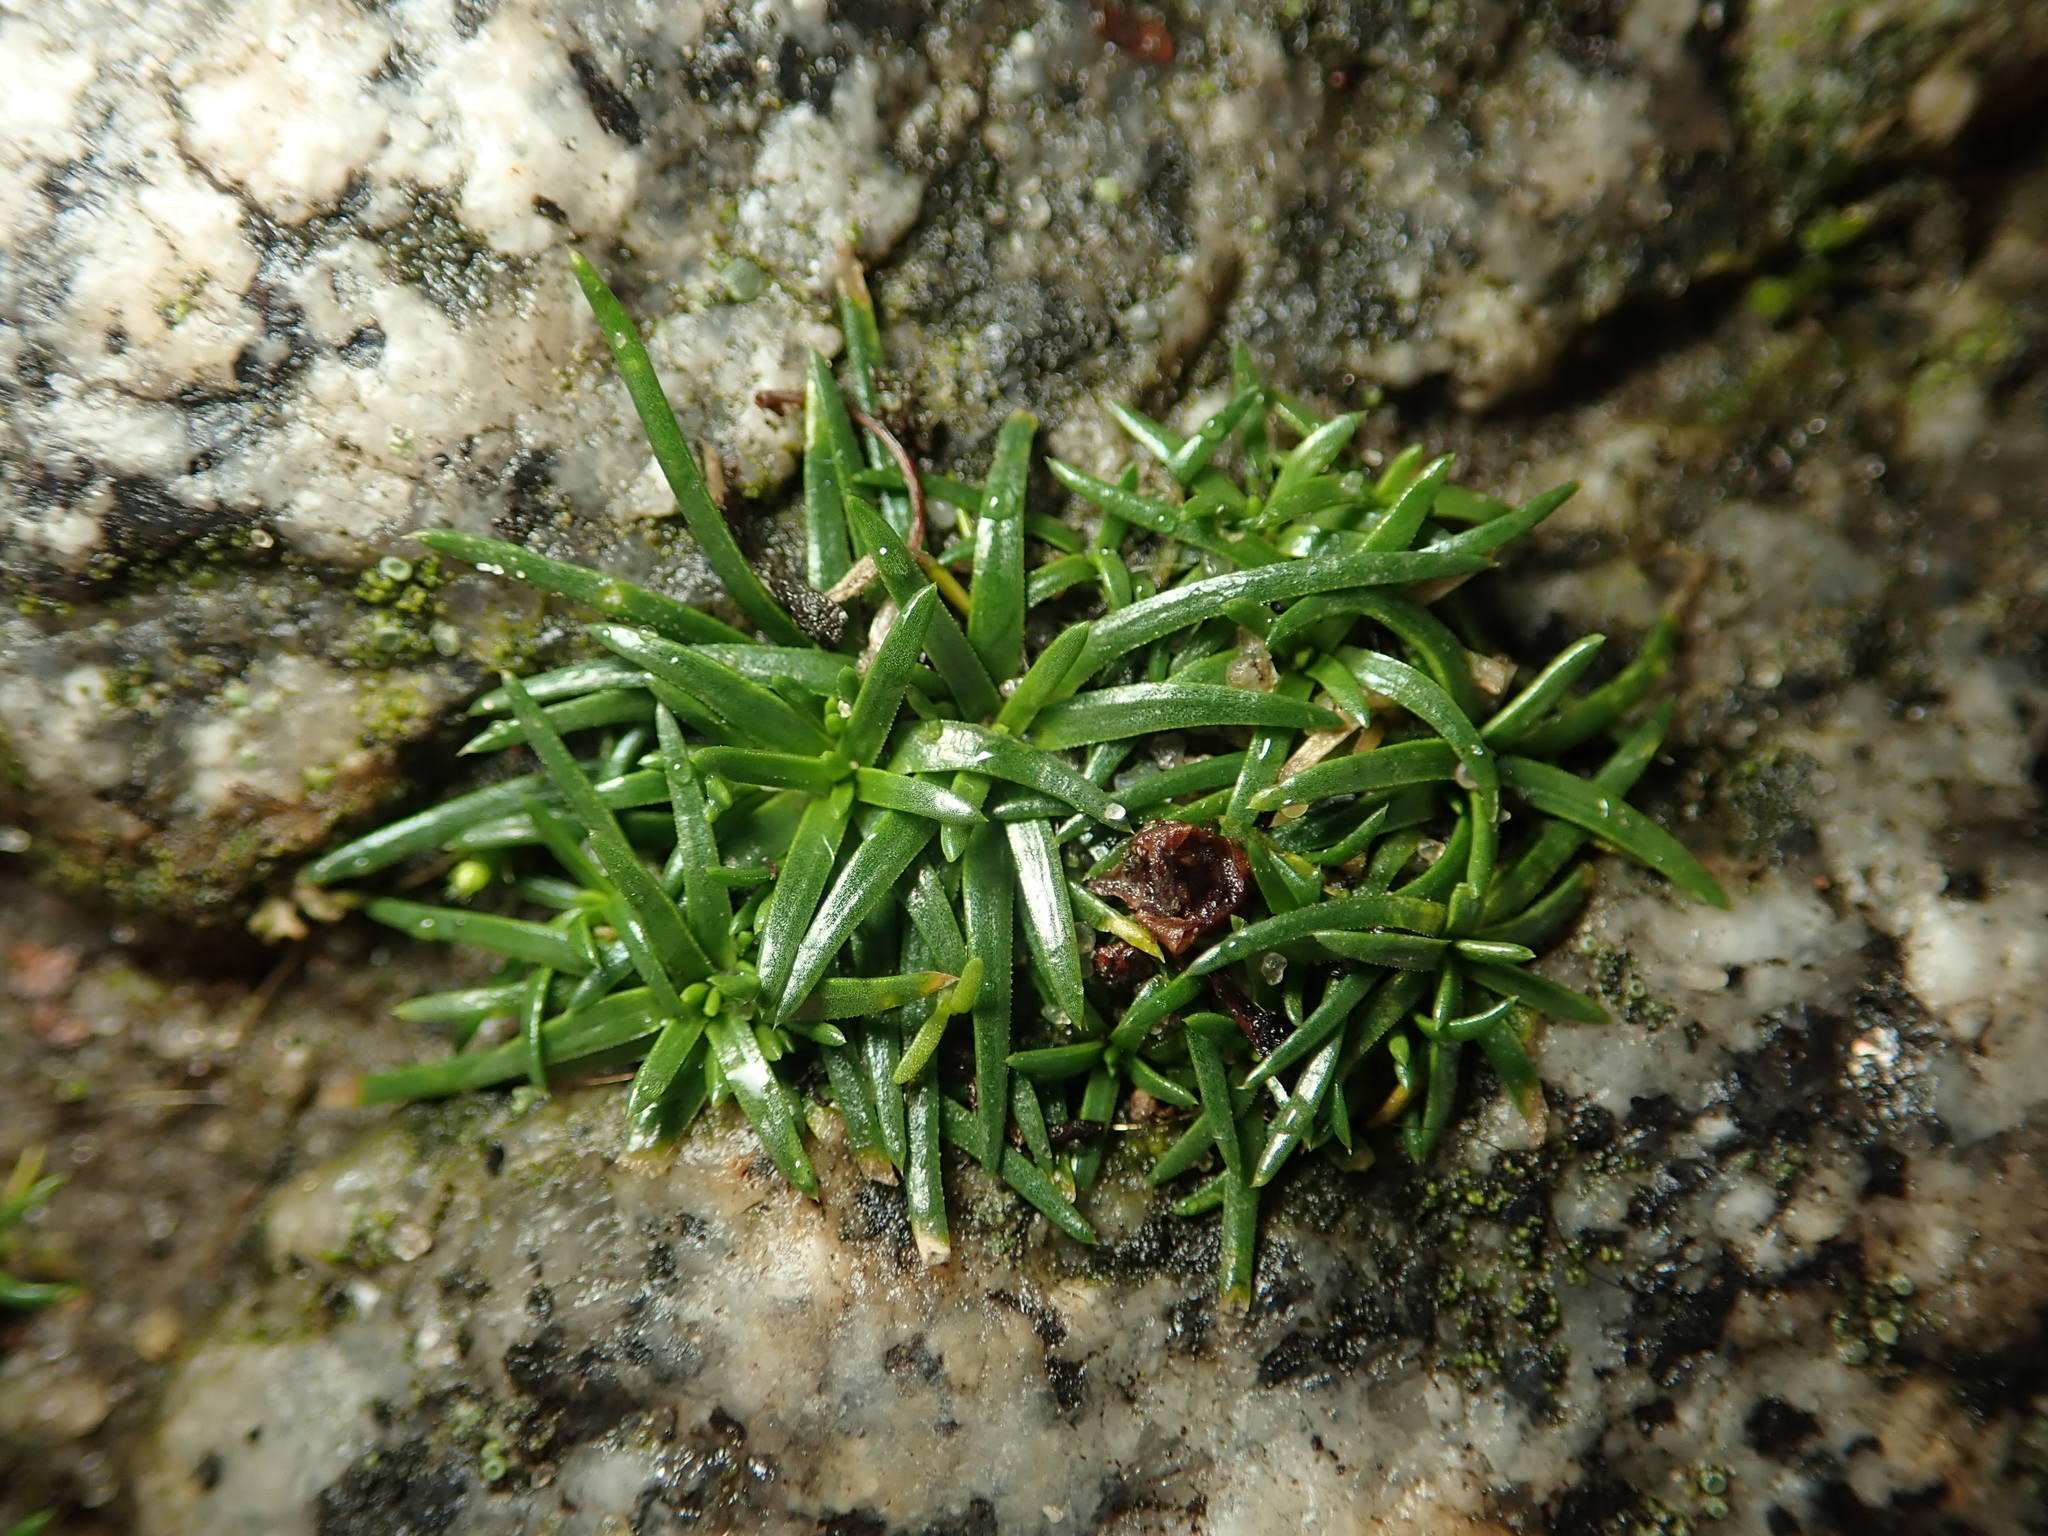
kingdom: Plantae
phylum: Tracheophyta
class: Magnoliopsida
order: Caryophyllales
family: Caryophyllaceae
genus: Sagina
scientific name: Sagina procumbens
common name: Procumbent pearlwort
